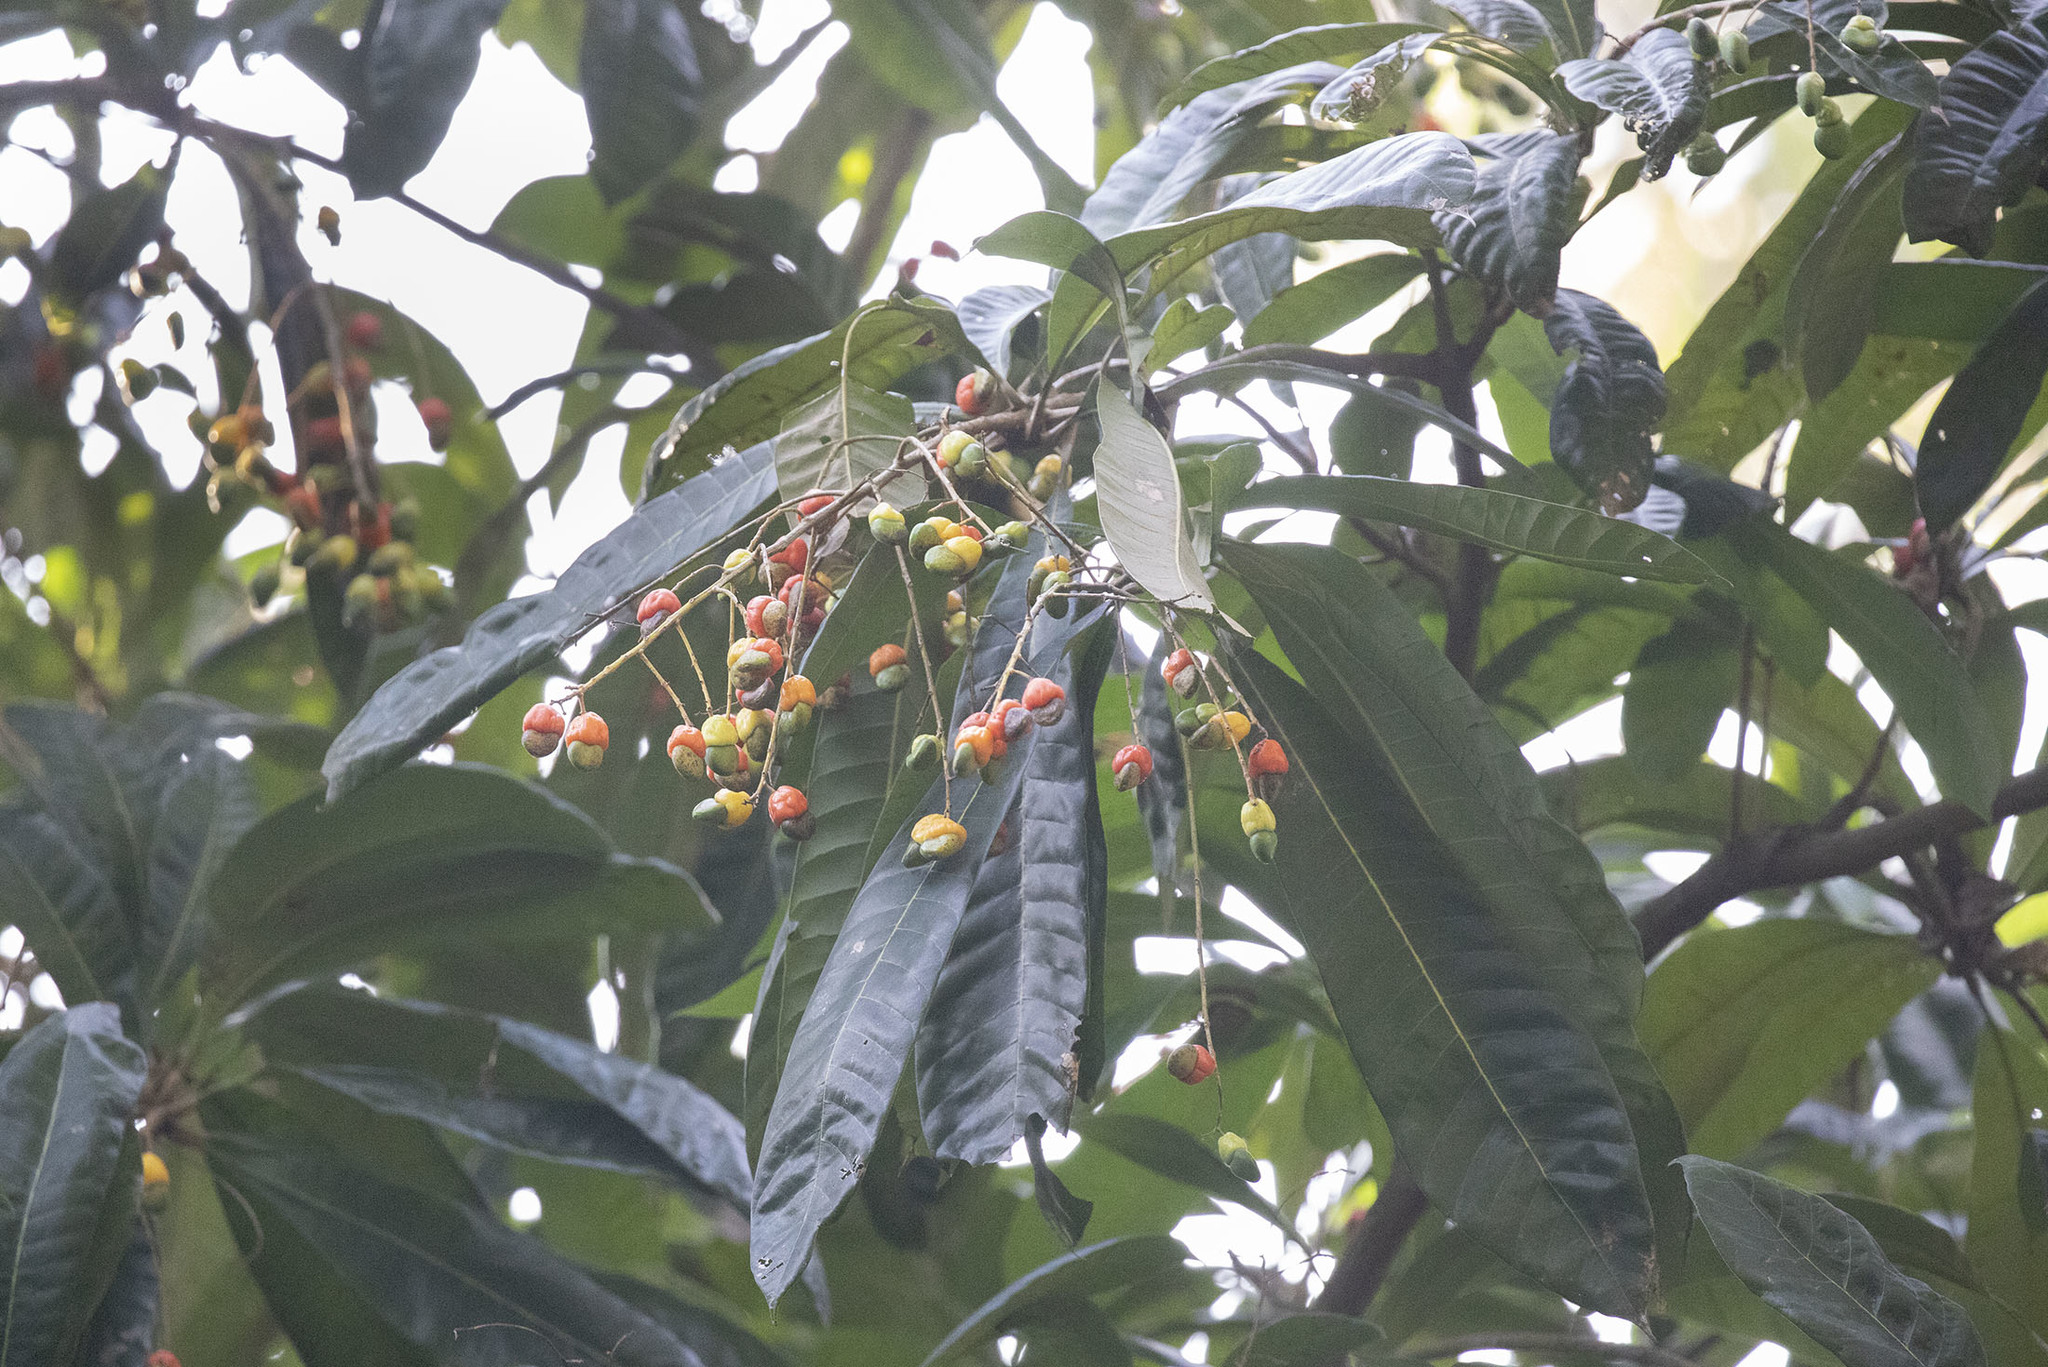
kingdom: Plantae
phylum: Tracheophyta
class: Magnoliopsida
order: Sapindales
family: Anacardiaceae
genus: Semecarpus
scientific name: Semecarpus kurzii
